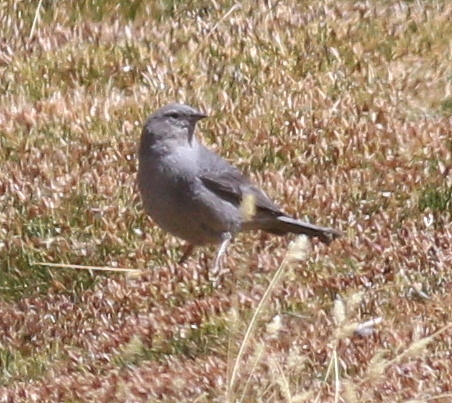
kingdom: Animalia
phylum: Chordata
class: Aves
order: Passeriformes
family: Thraupidae
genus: Geospizopsis
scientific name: Geospizopsis unicolor
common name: Plumbeous sierra-finch
